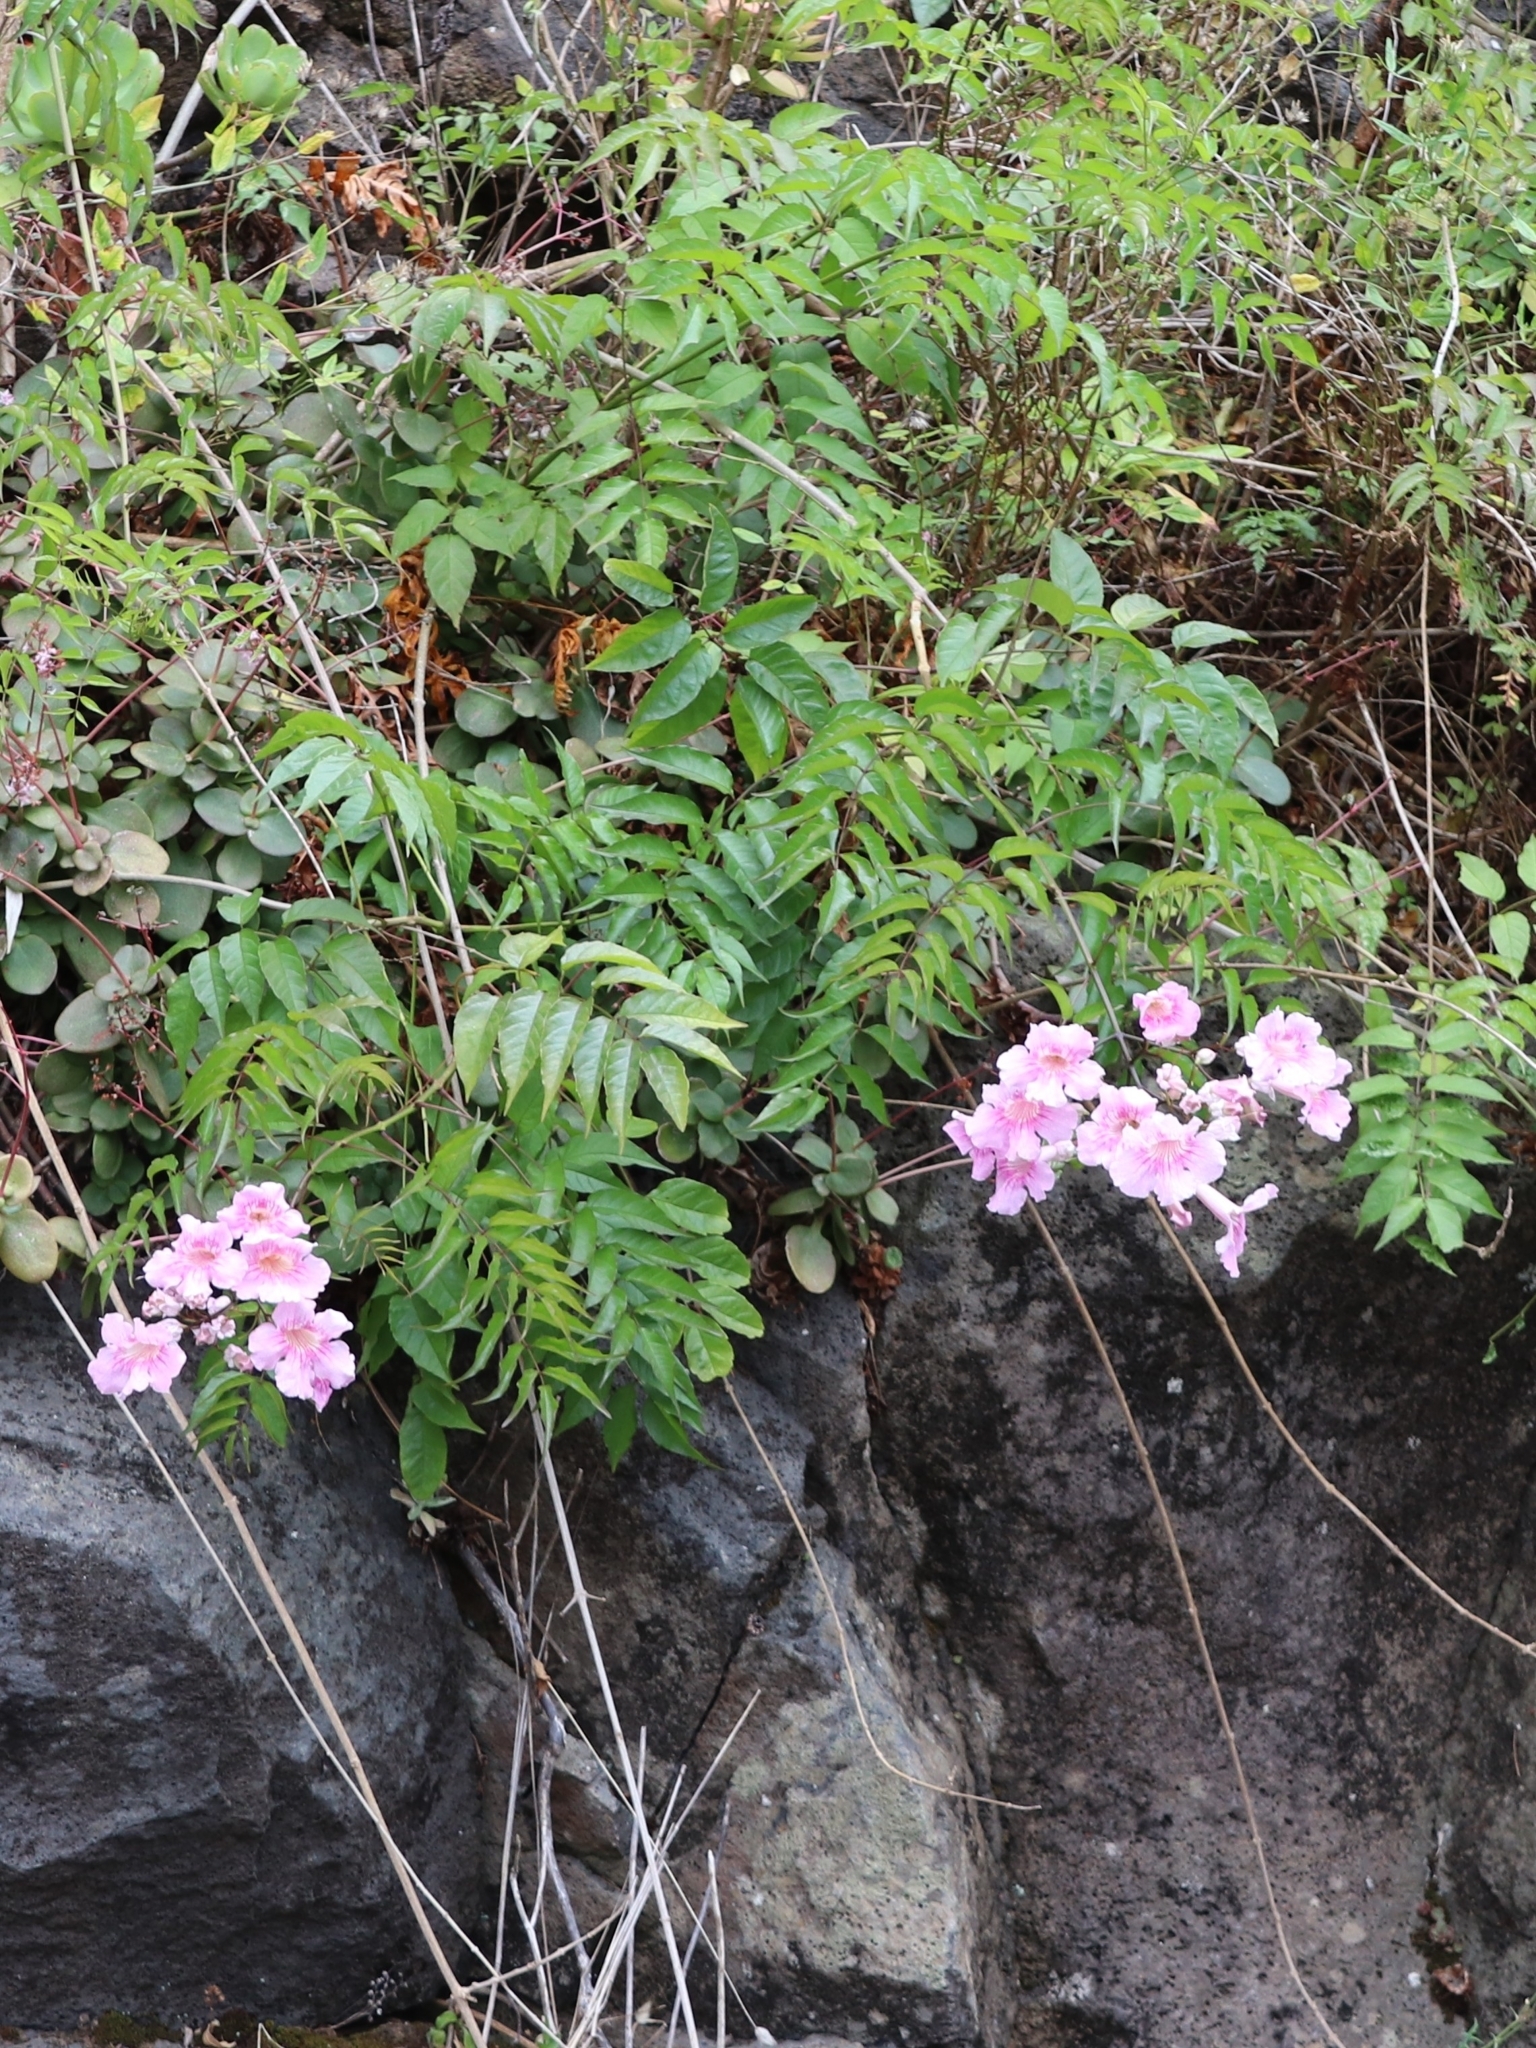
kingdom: Plantae
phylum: Tracheophyta
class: Magnoliopsida
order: Lamiales
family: Bignoniaceae
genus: Podranea
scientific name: Podranea ricasoliana
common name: Zimbabwe creeper
